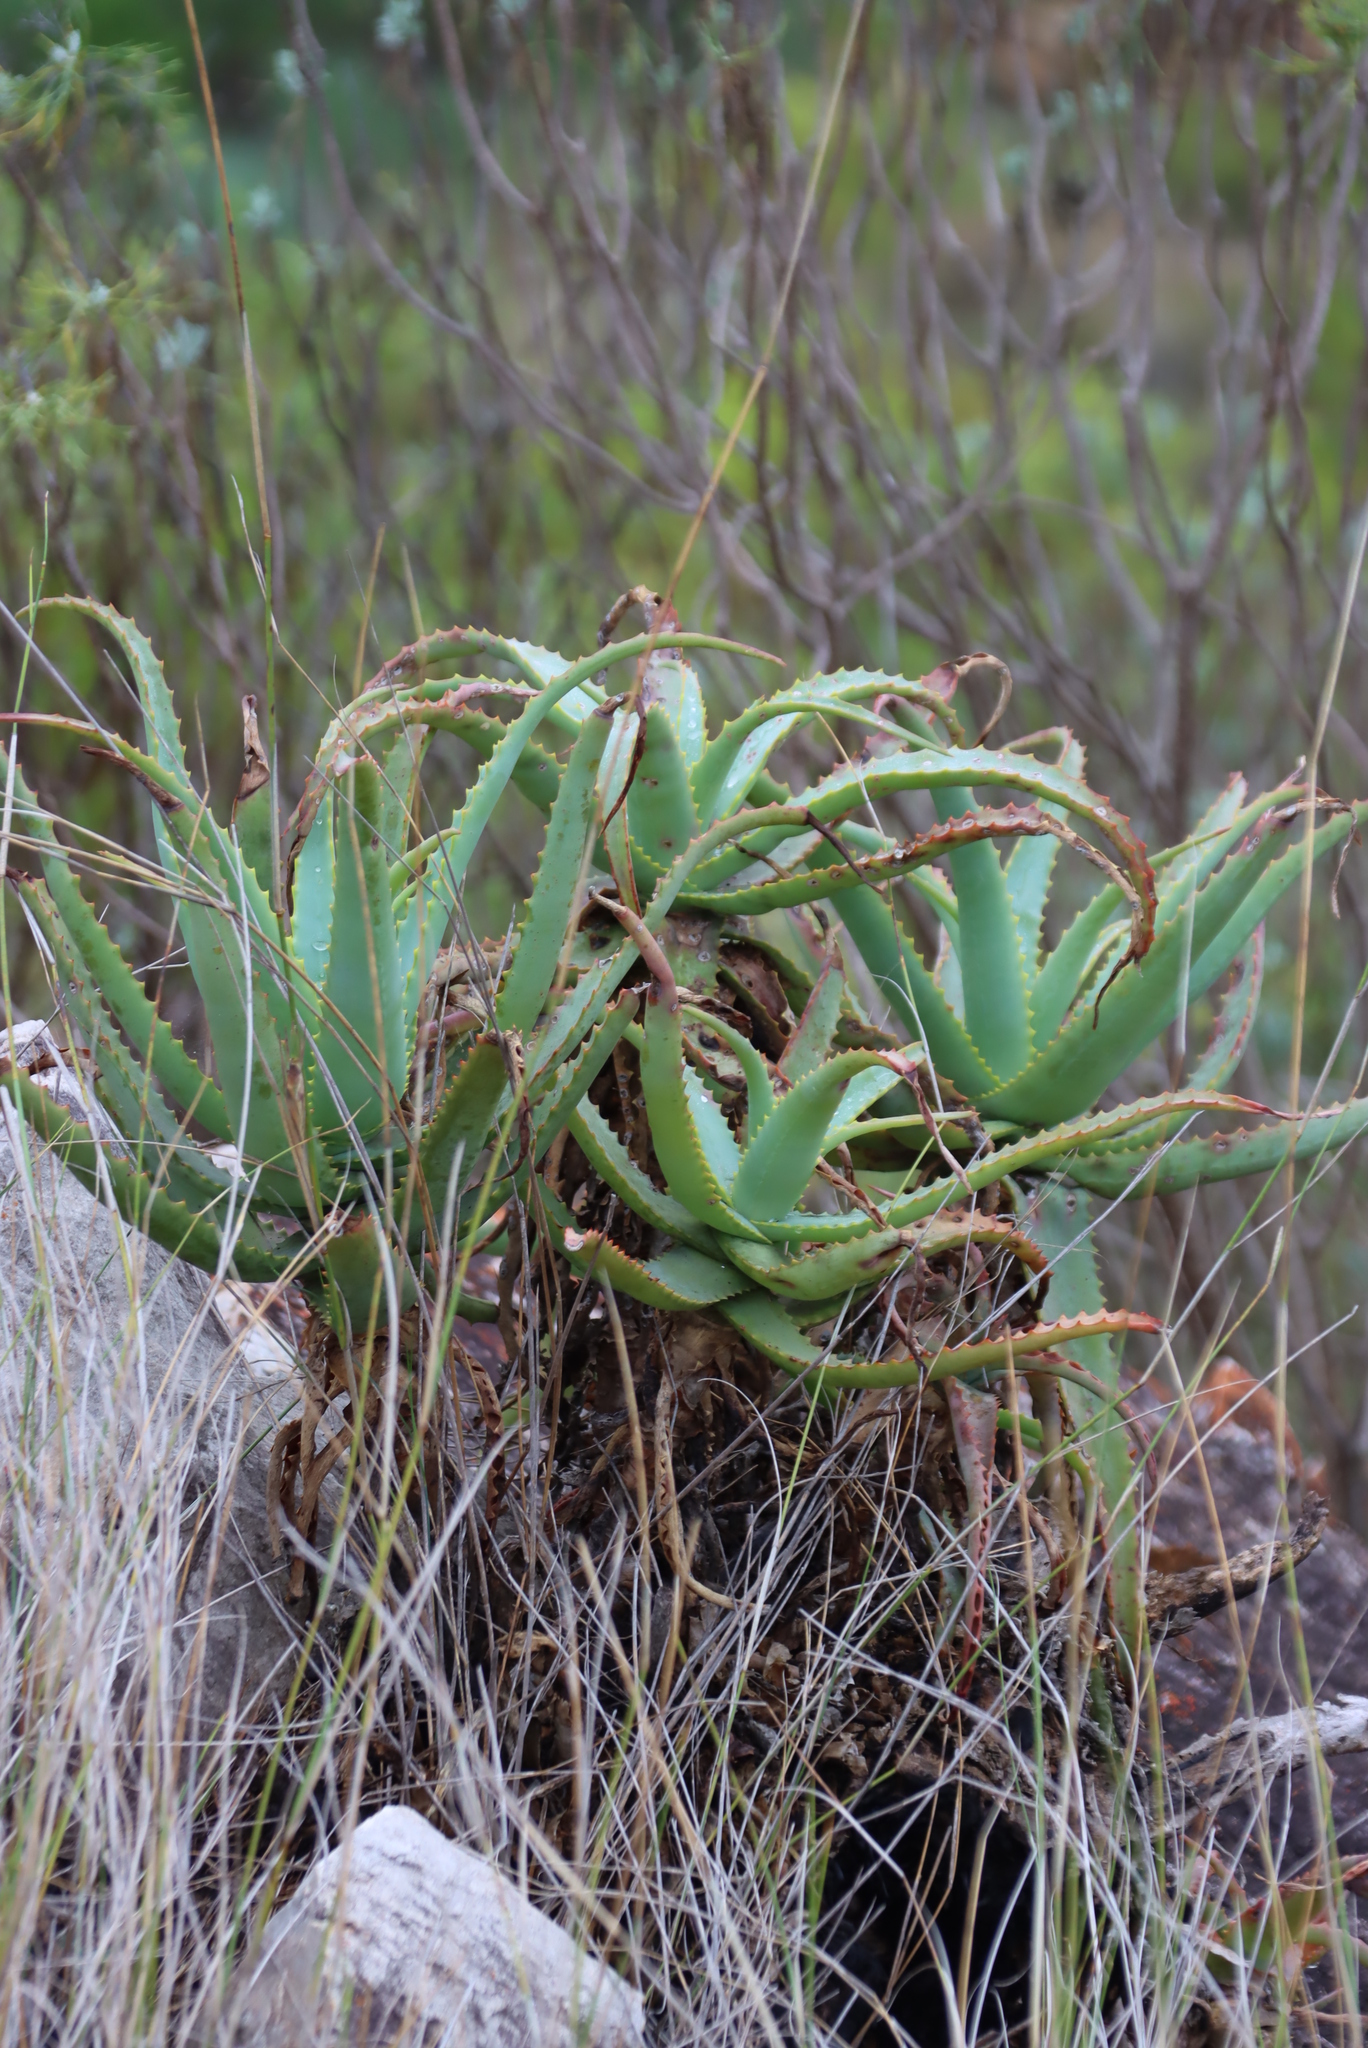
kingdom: Plantae
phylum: Tracheophyta
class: Liliopsida
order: Asparagales
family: Asphodelaceae
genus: Aloe
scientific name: Aloe arborescens
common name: Candelabra aloe
